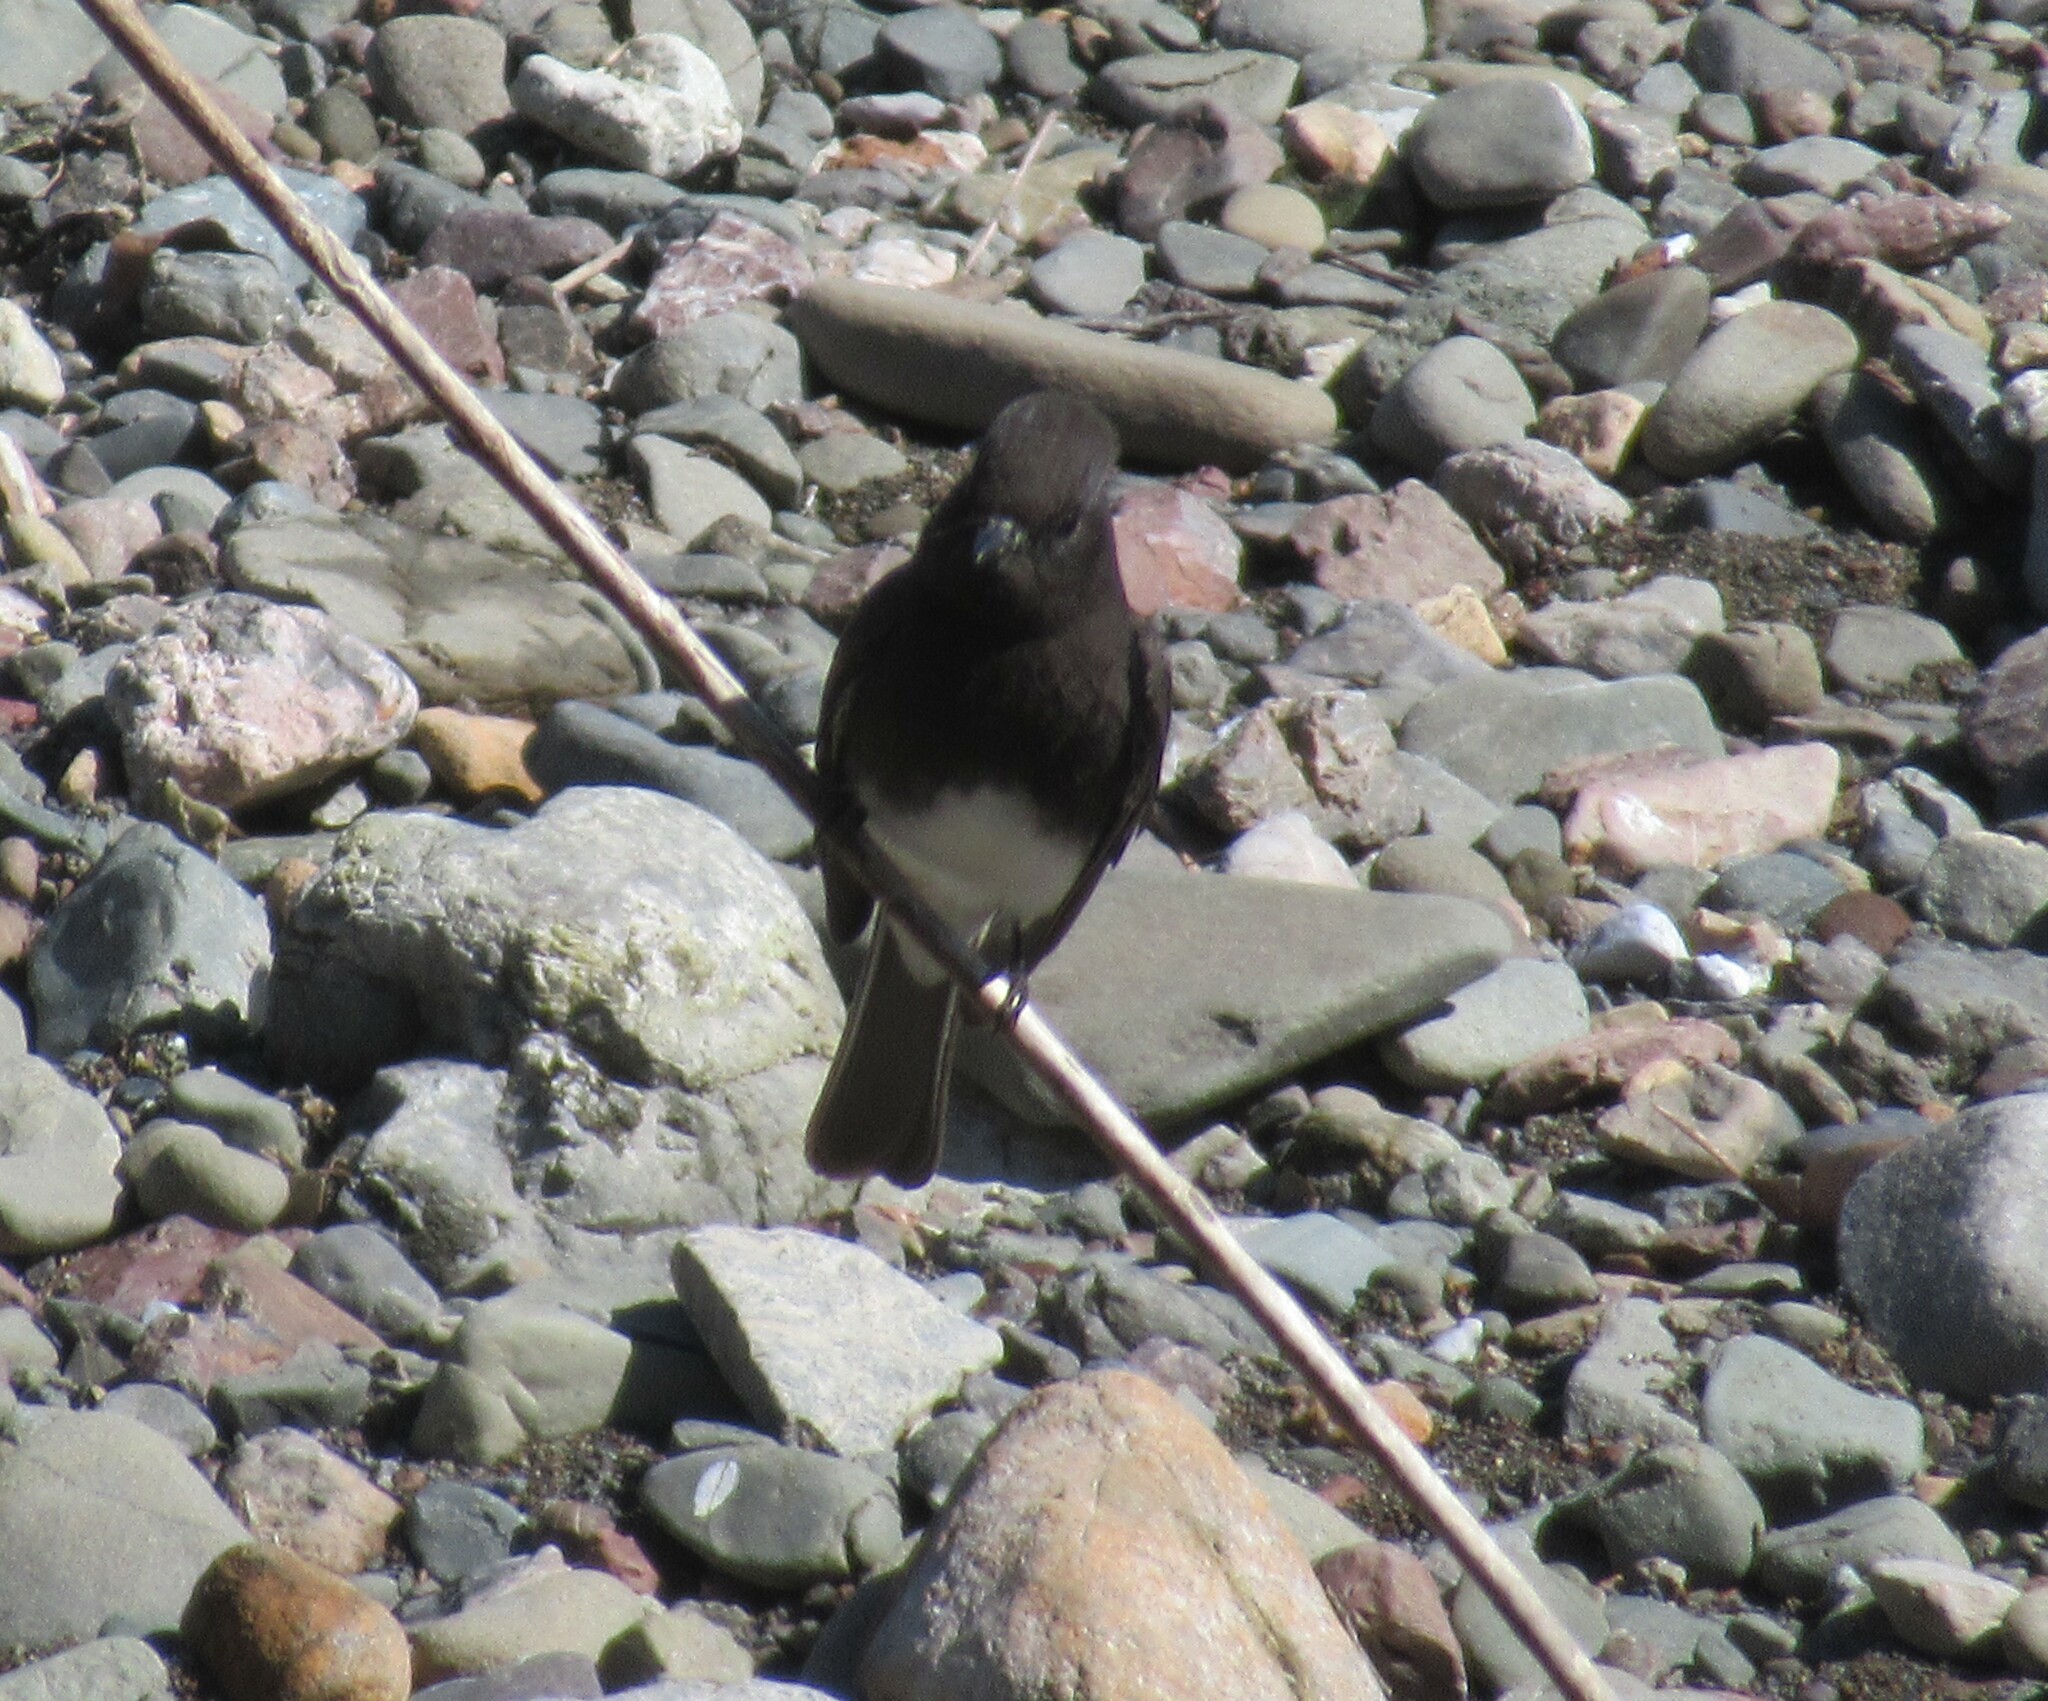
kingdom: Animalia
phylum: Chordata
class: Aves
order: Passeriformes
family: Tyrannidae
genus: Sayornis
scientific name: Sayornis nigricans
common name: Black phoebe
